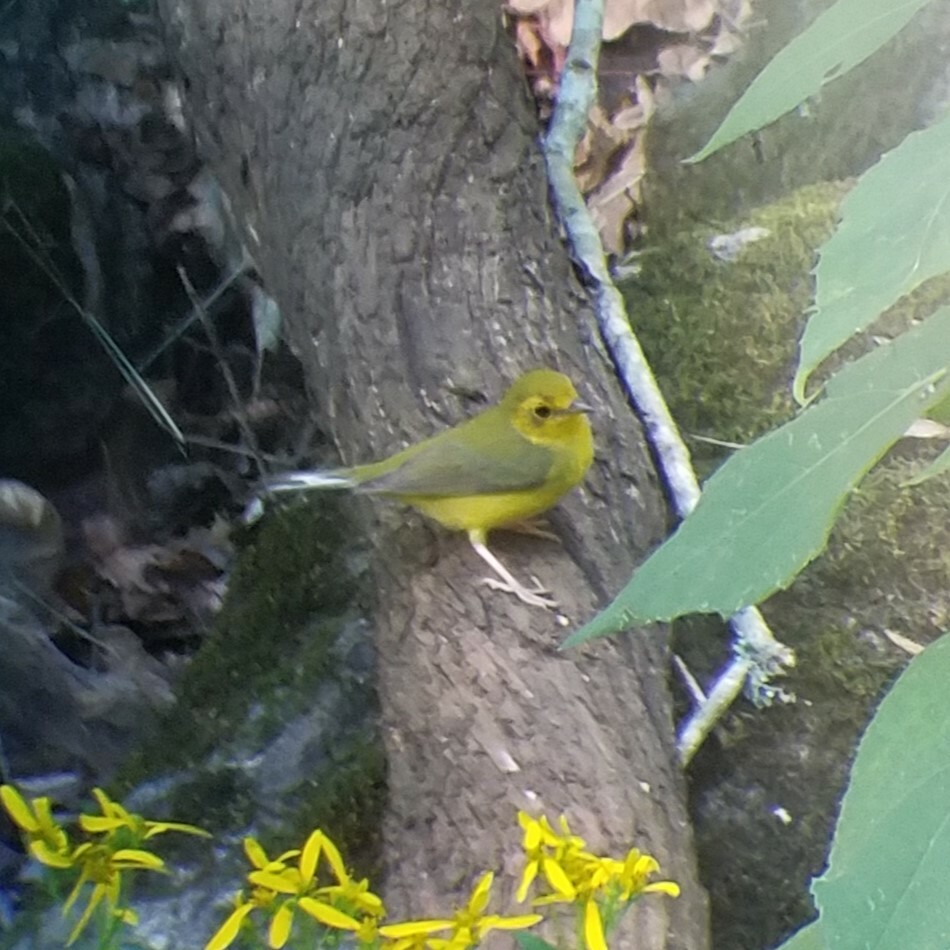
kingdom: Animalia
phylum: Chordata
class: Aves
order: Passeriformes
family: Parulidae
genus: Setophaga
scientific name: Setophaga citrina
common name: Hooded warbler
